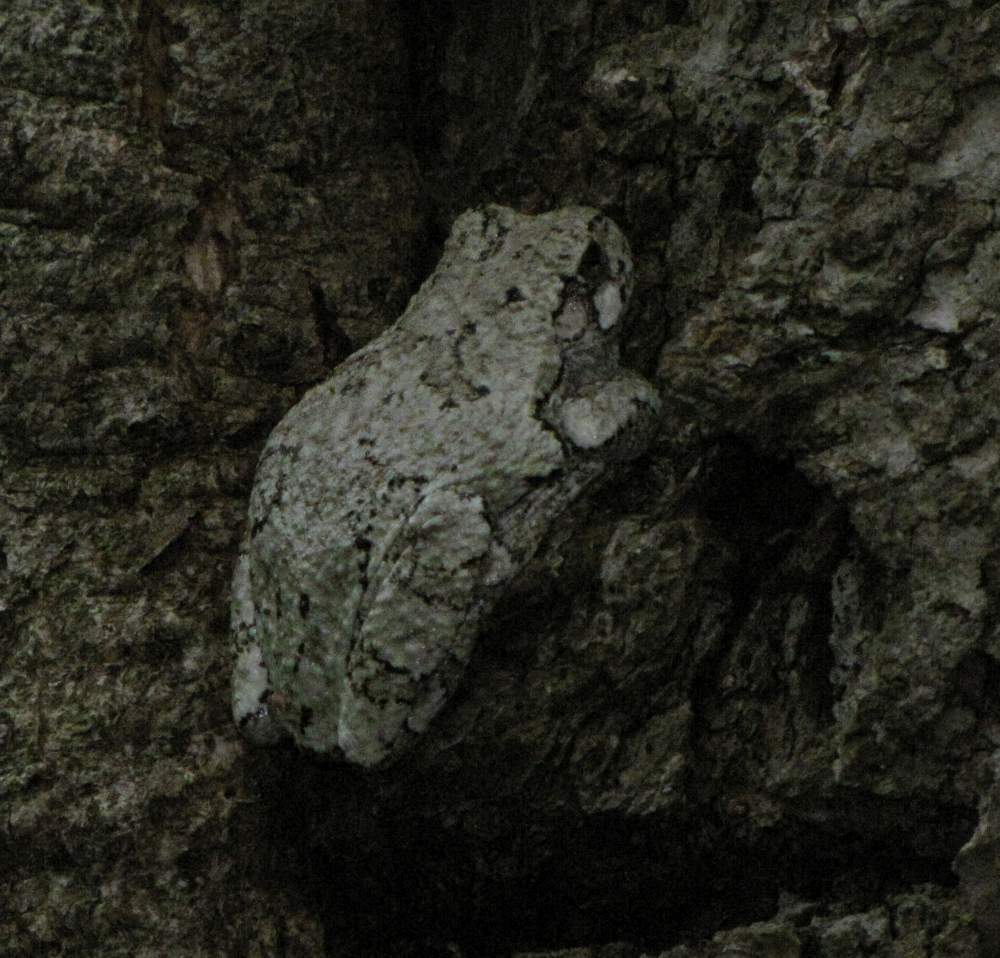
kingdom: Animalia
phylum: Chordata
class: Amphibia
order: Anura
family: Hylidae
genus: Dryophytes
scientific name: Dryophytes versicolor
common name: Gray treefrog
